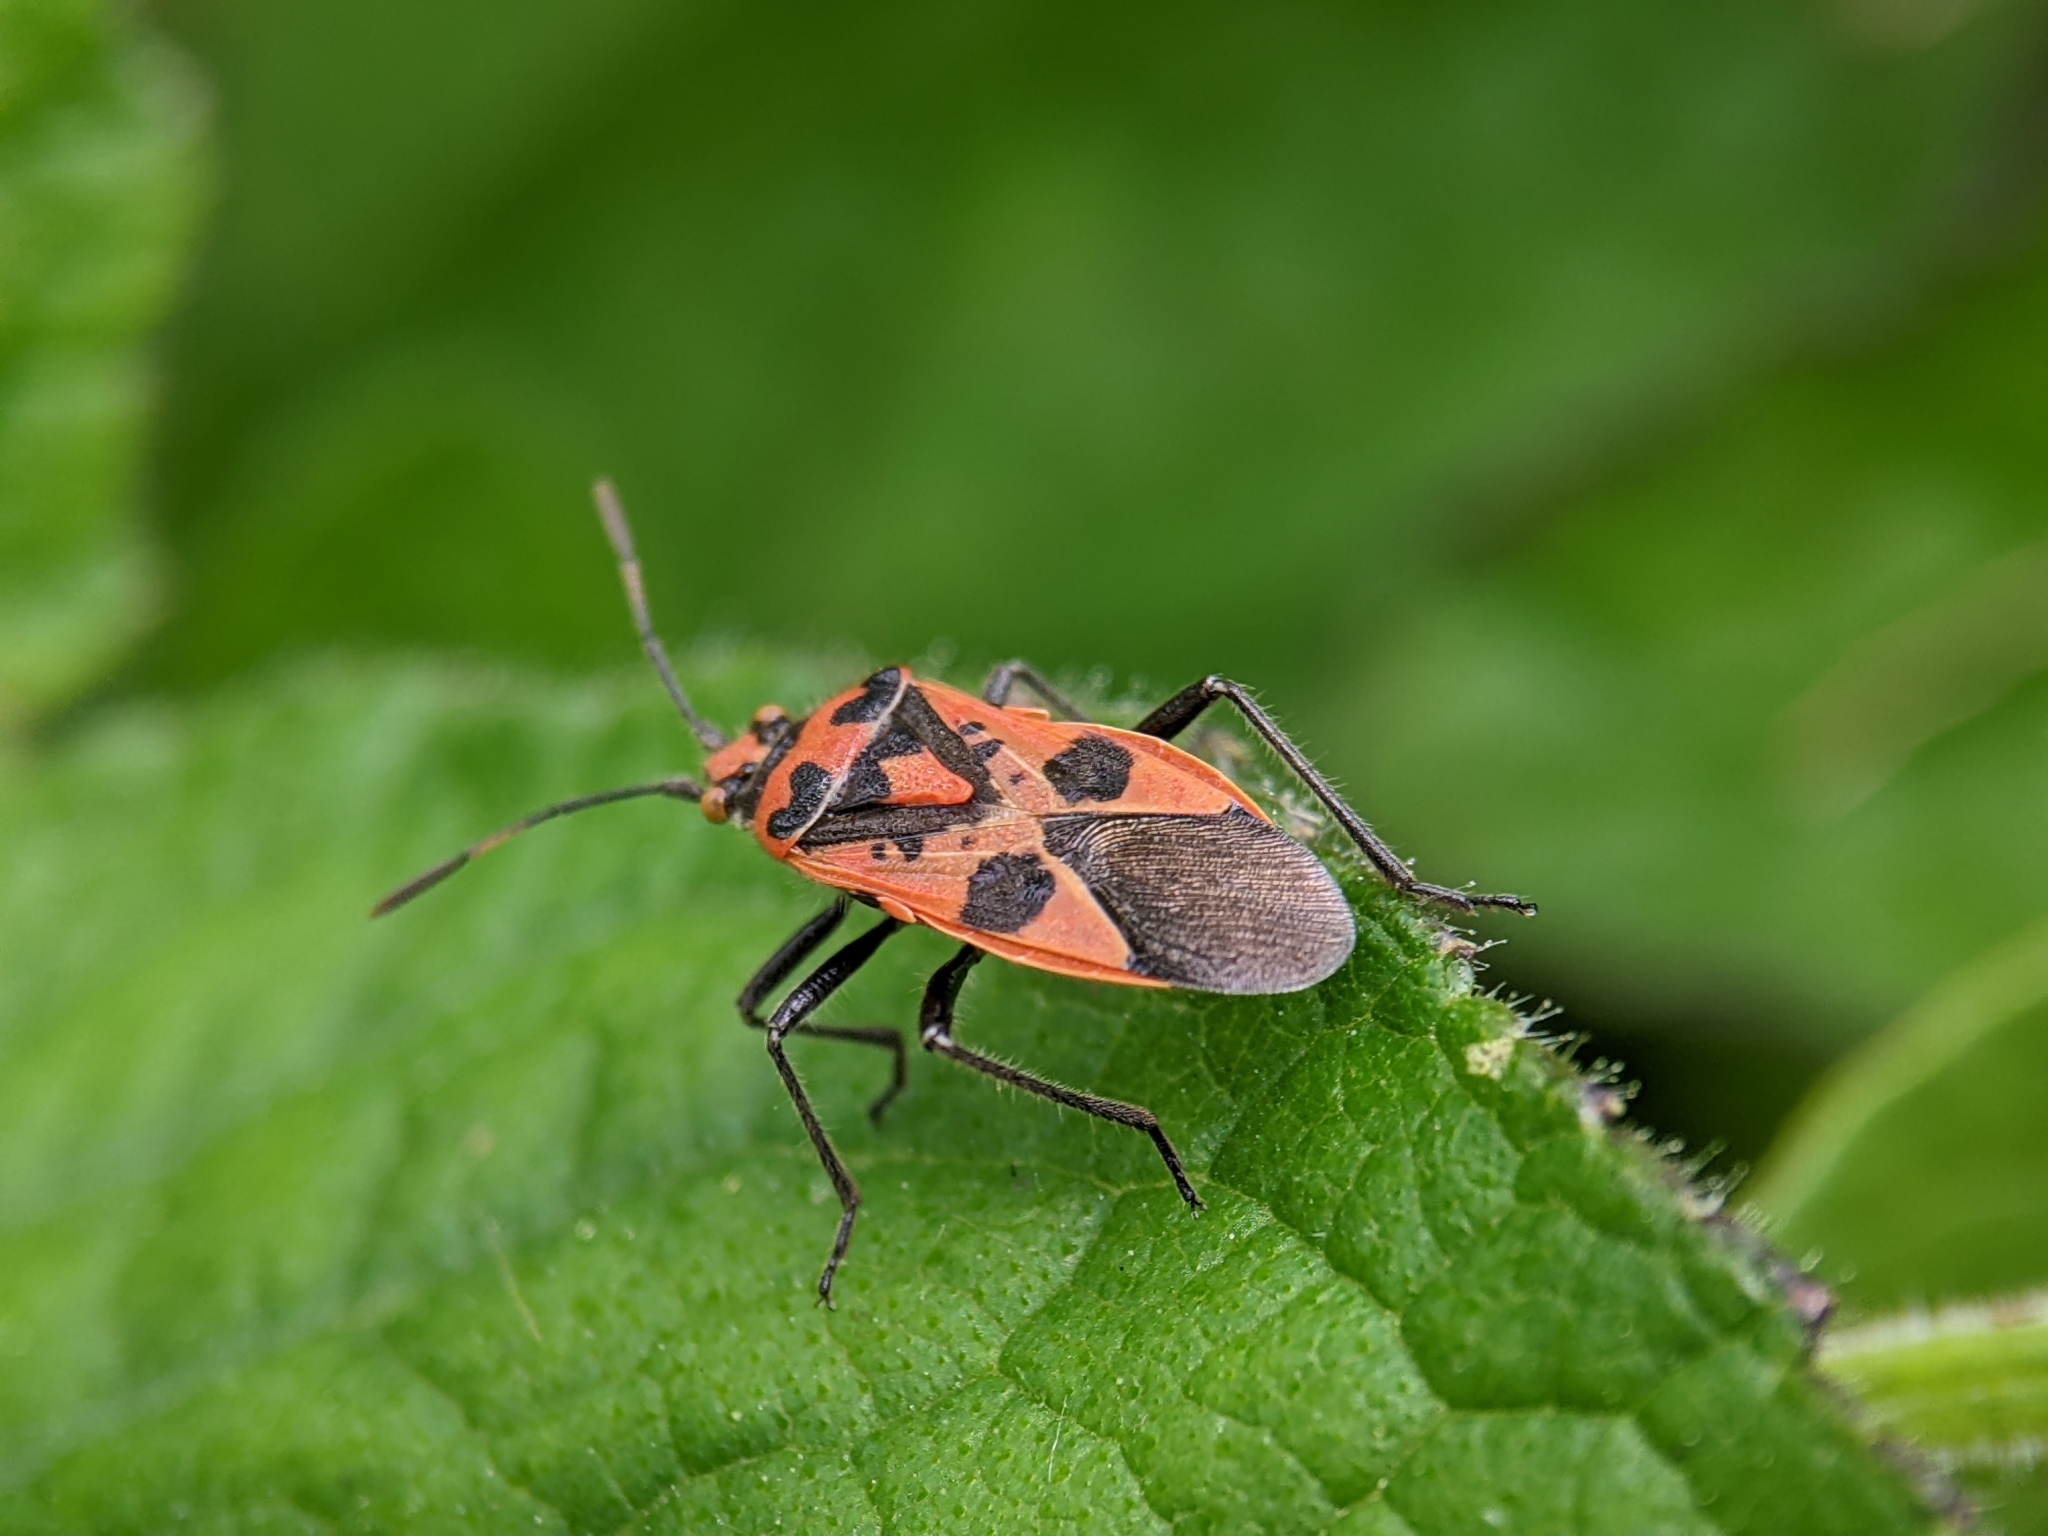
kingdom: Animalia
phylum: Arthropoda
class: Insecta
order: Hemiptera
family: Rhopalidae
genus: Corizus
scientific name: Corizus hyoscyami
